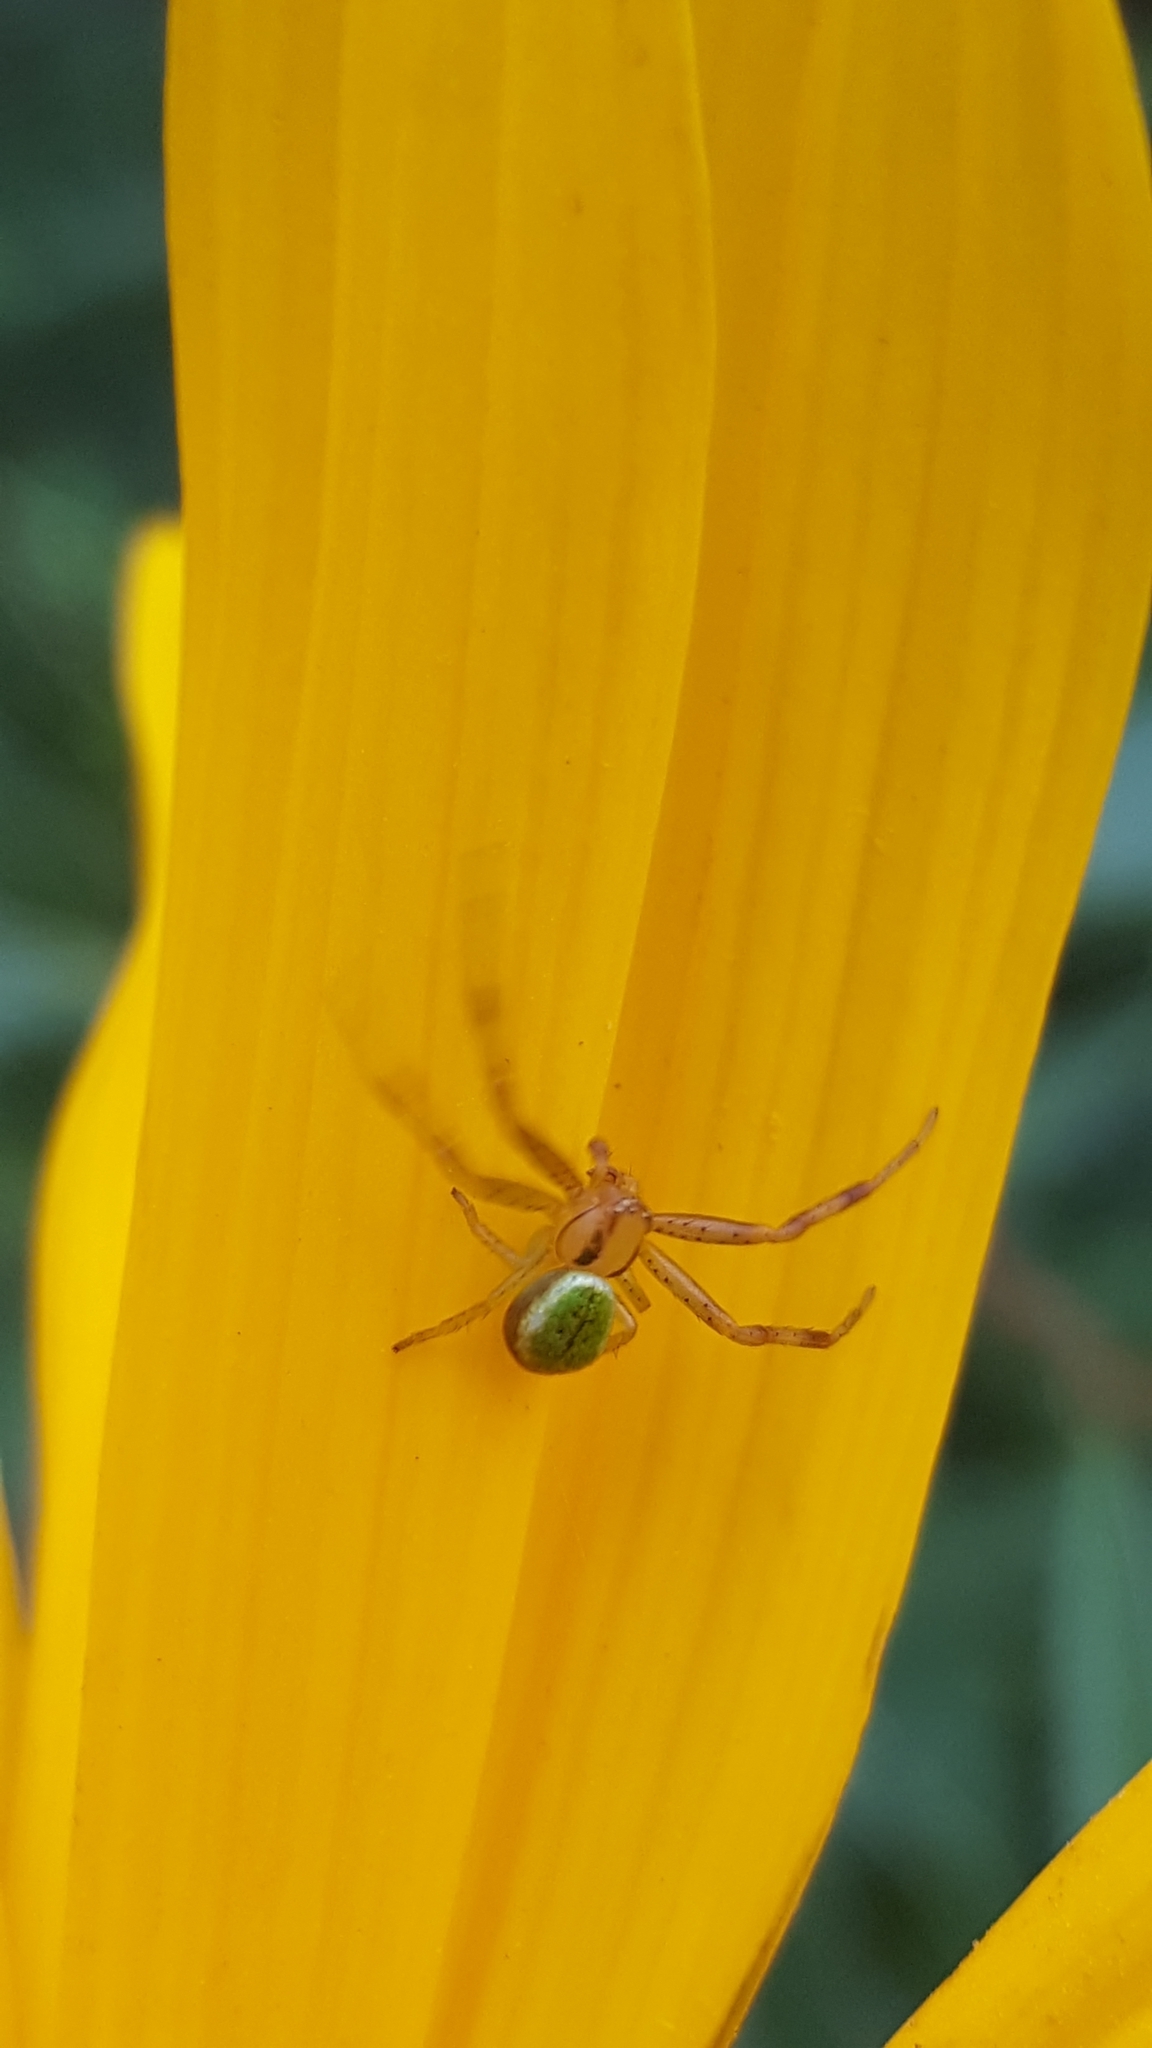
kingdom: Animalia
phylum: Arthropoda
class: Arachnida
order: Araneae
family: Thomisidae
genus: Ebrechtella
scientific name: Ebrechtella tricuspidata
